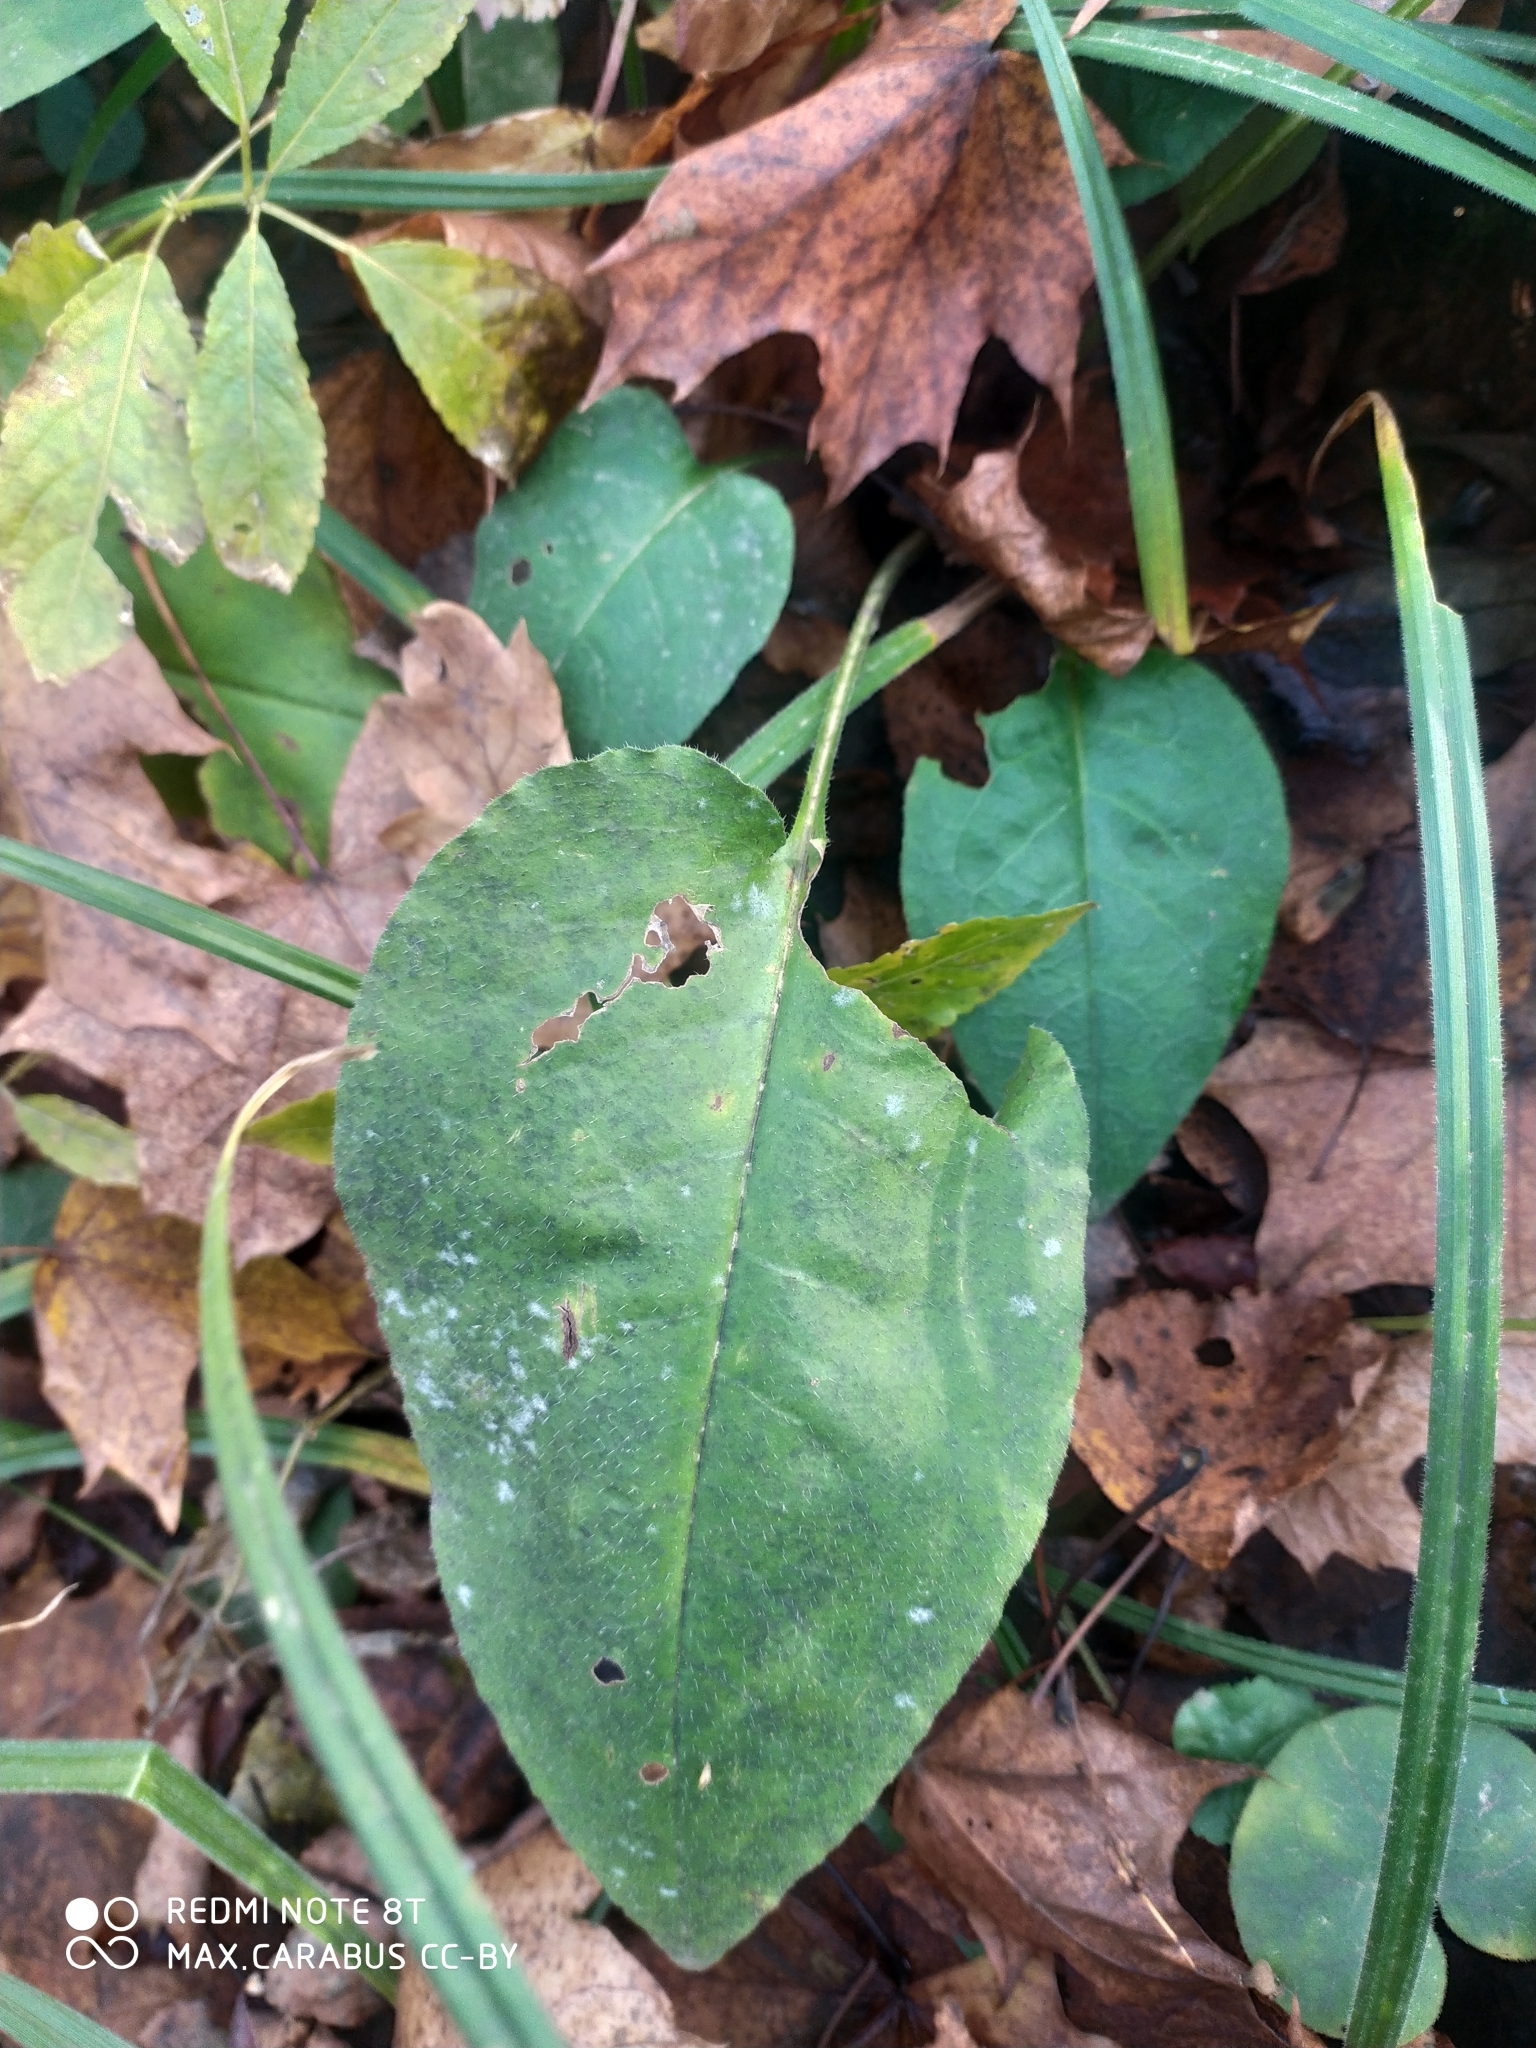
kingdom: Plantae
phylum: Tracheophyta
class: Magnoliopsida
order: Boraginales
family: Boraginaceae
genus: Pulmonaria
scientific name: Pulmonaria obscura
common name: Suffolk lungwort
